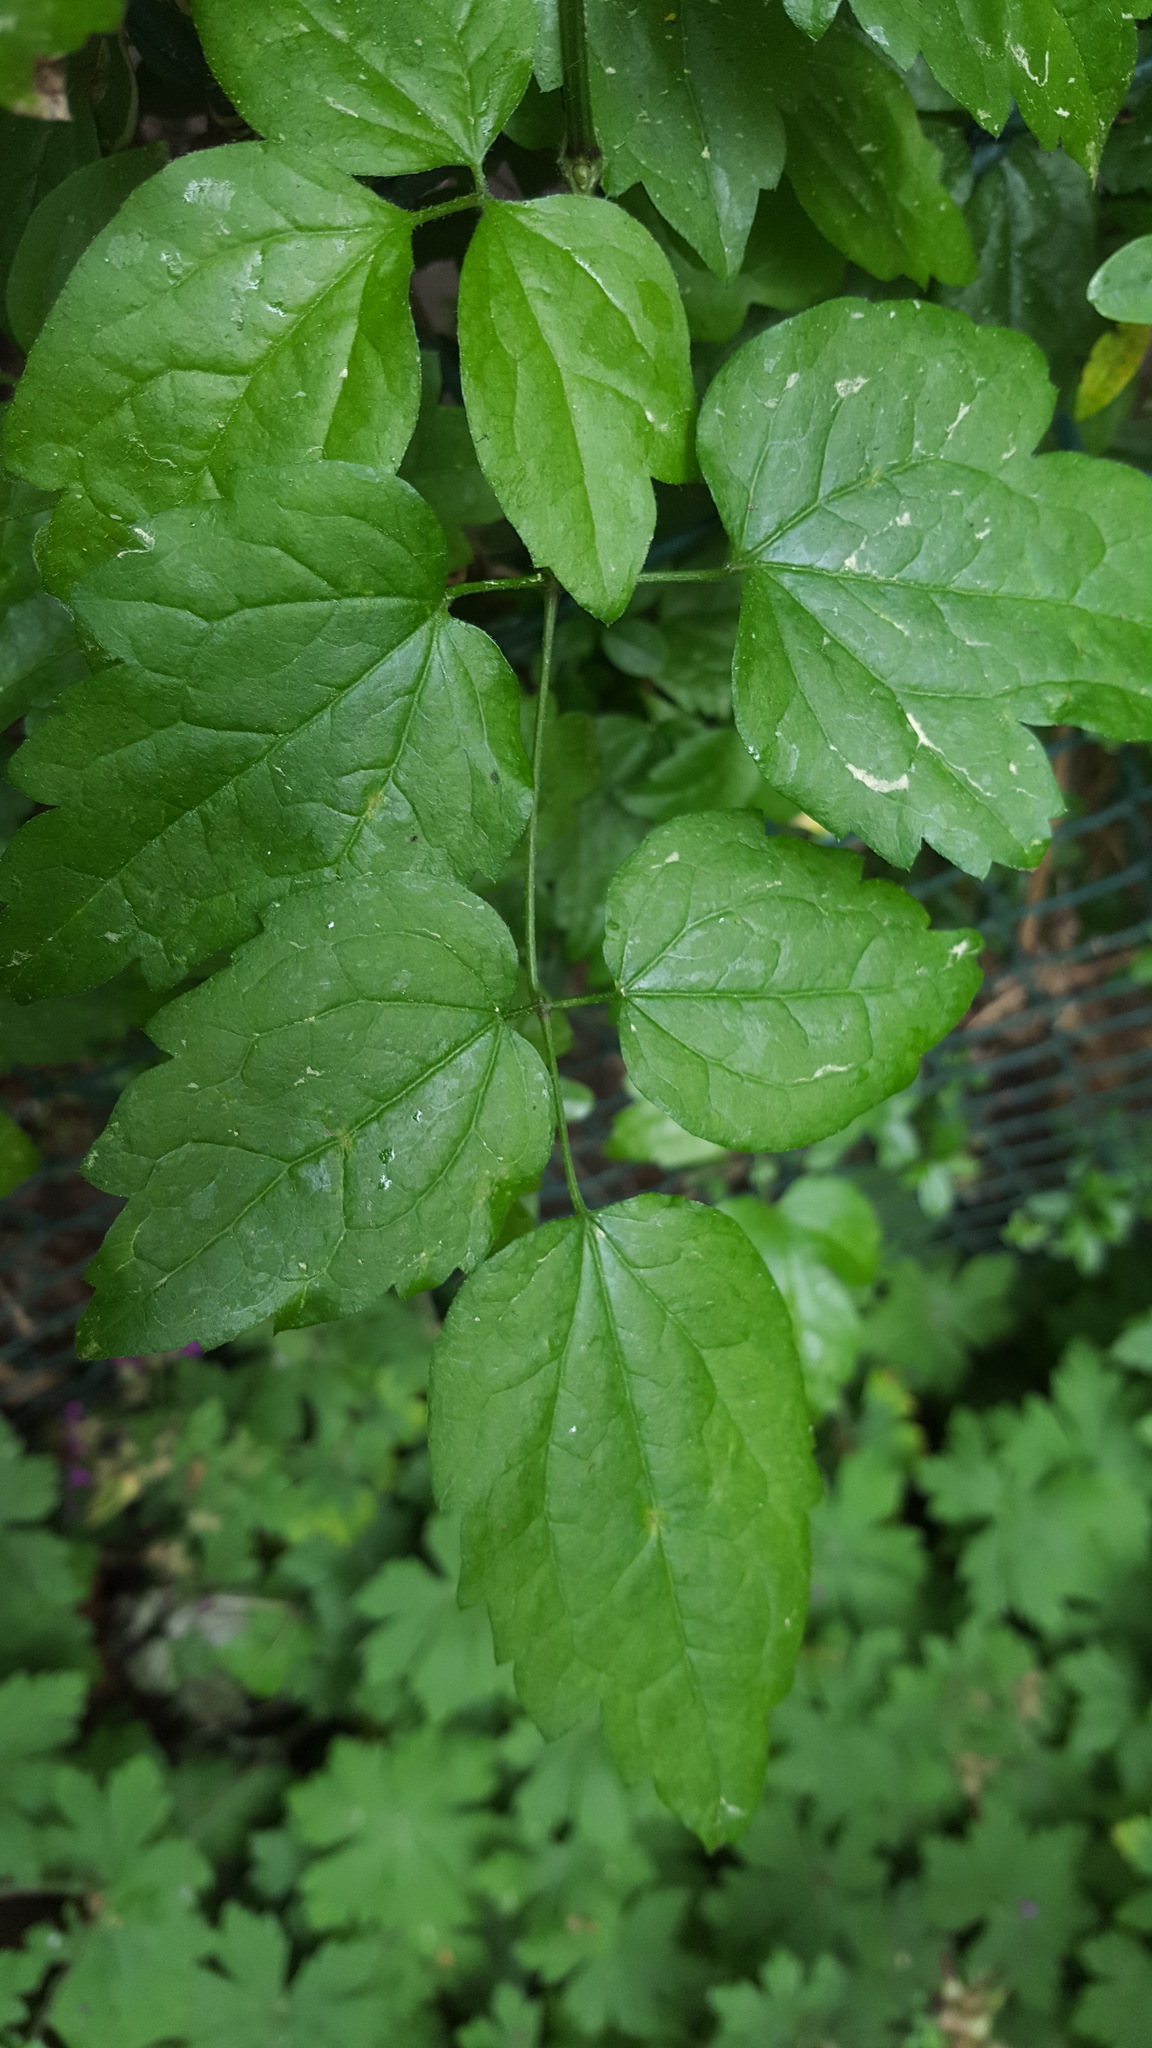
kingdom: Plantae
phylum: Tracheophyta
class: Magnoliopsida
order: Ranunculales
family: Ranunculaceae
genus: Clematis
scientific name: Clematis vitalba
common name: Evergreen clematis
